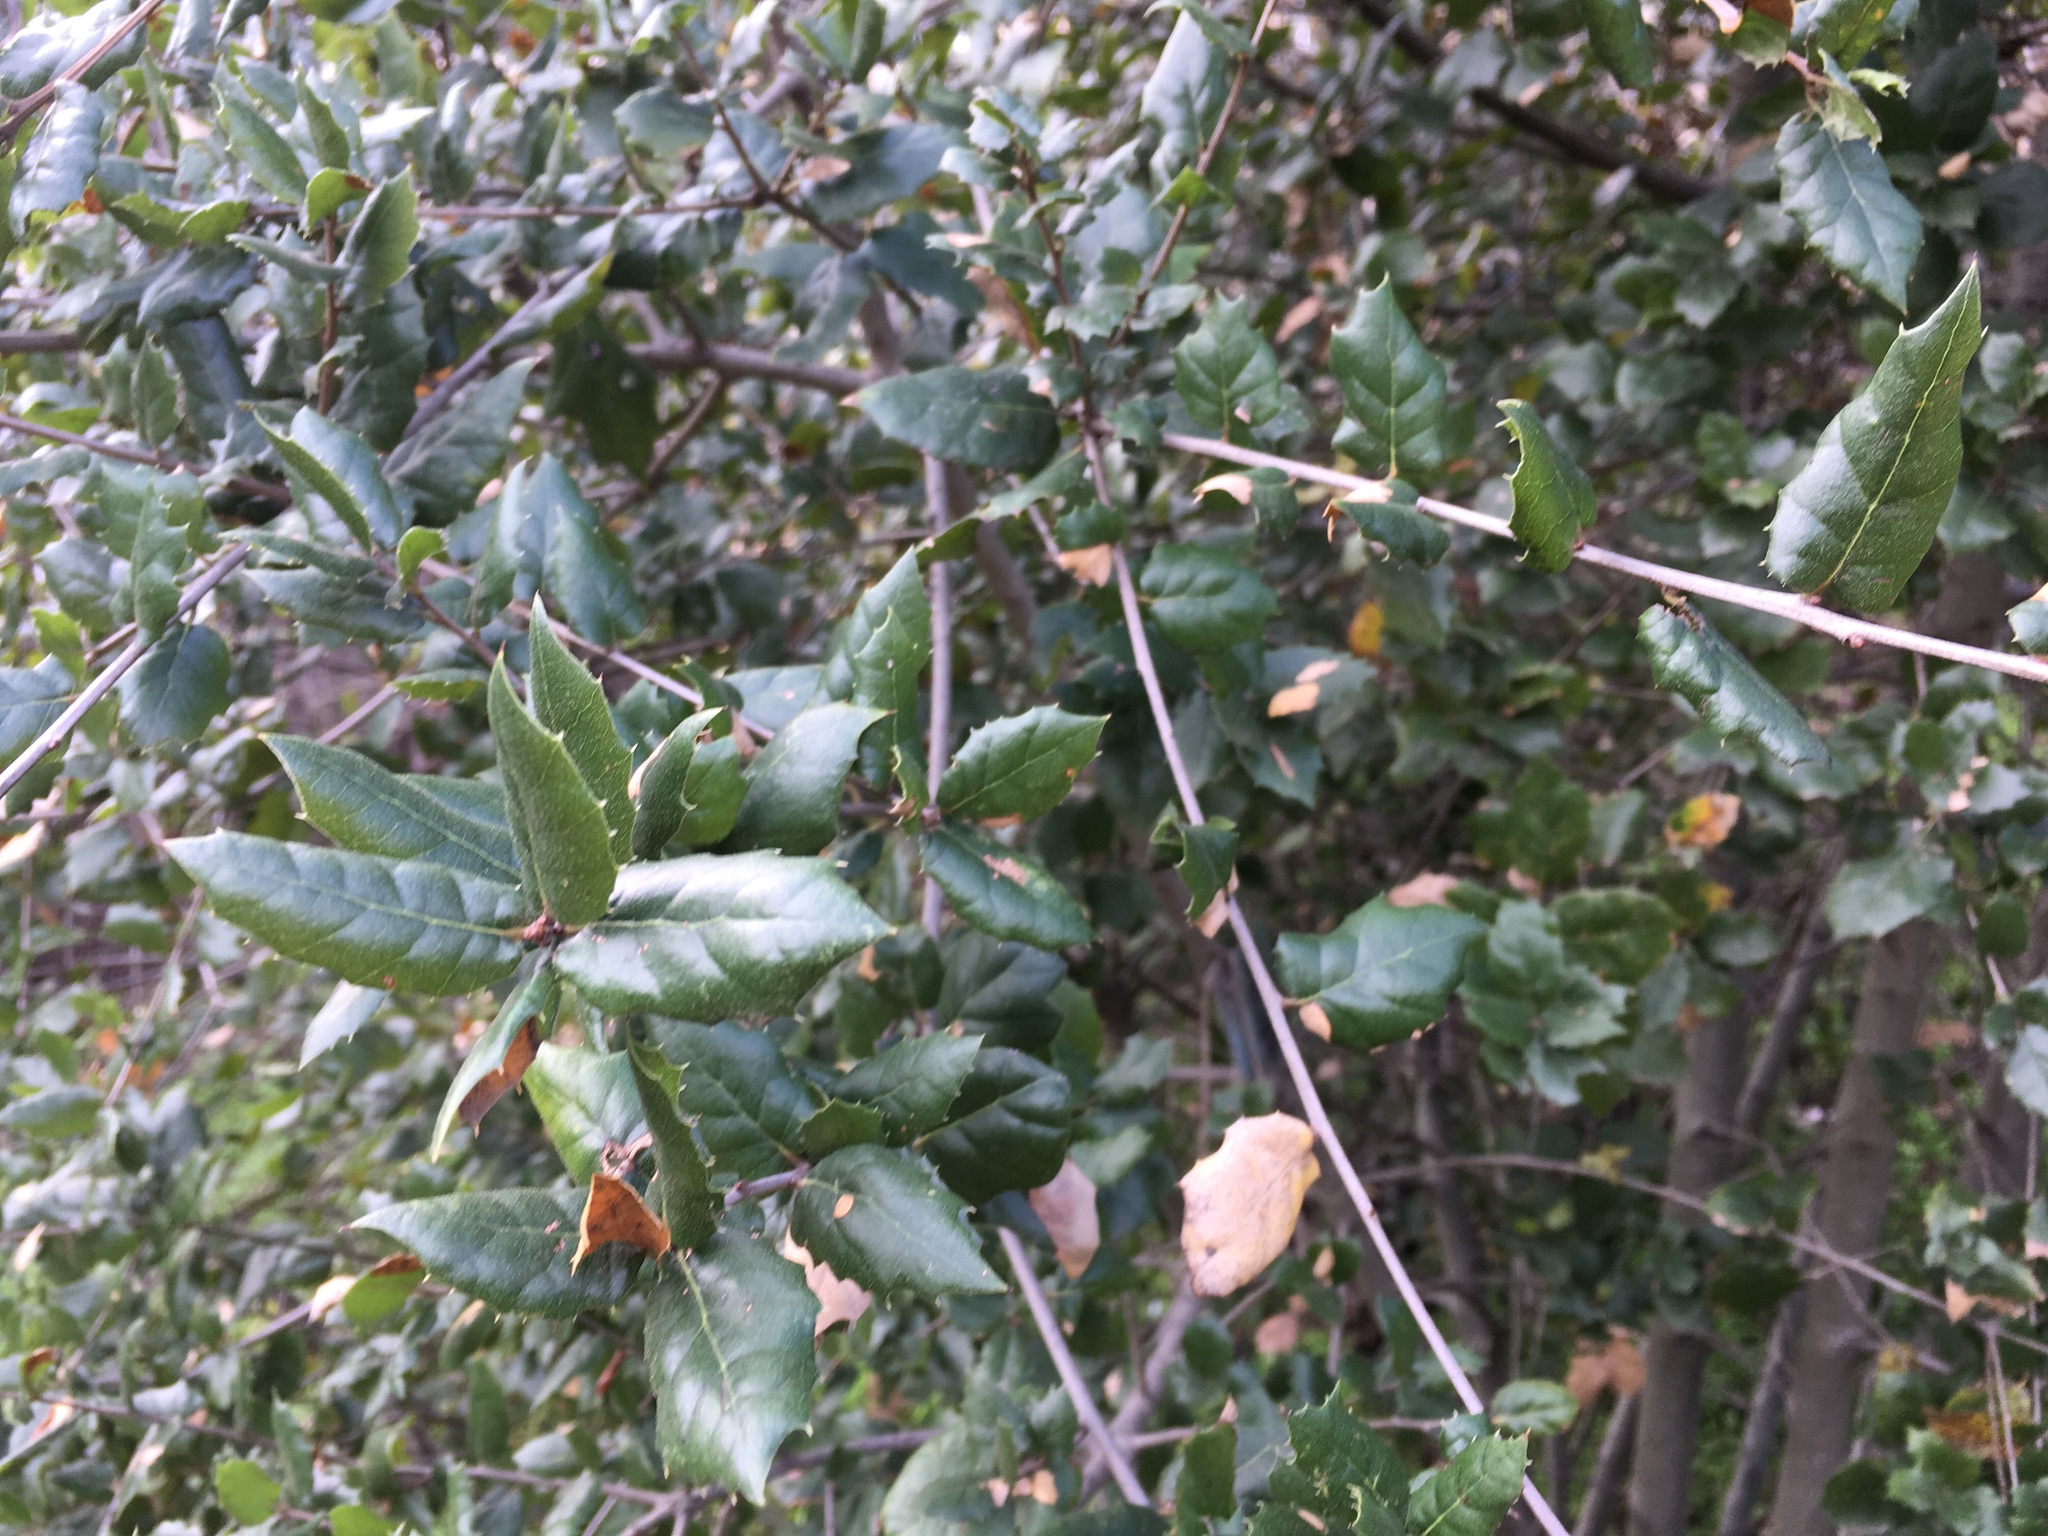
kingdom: Plantae
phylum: Tracheophyta
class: Magnoliopsida
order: Fagales
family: Fagaceae
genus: Quercus
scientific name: Quercus agrifolia
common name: California live oak
